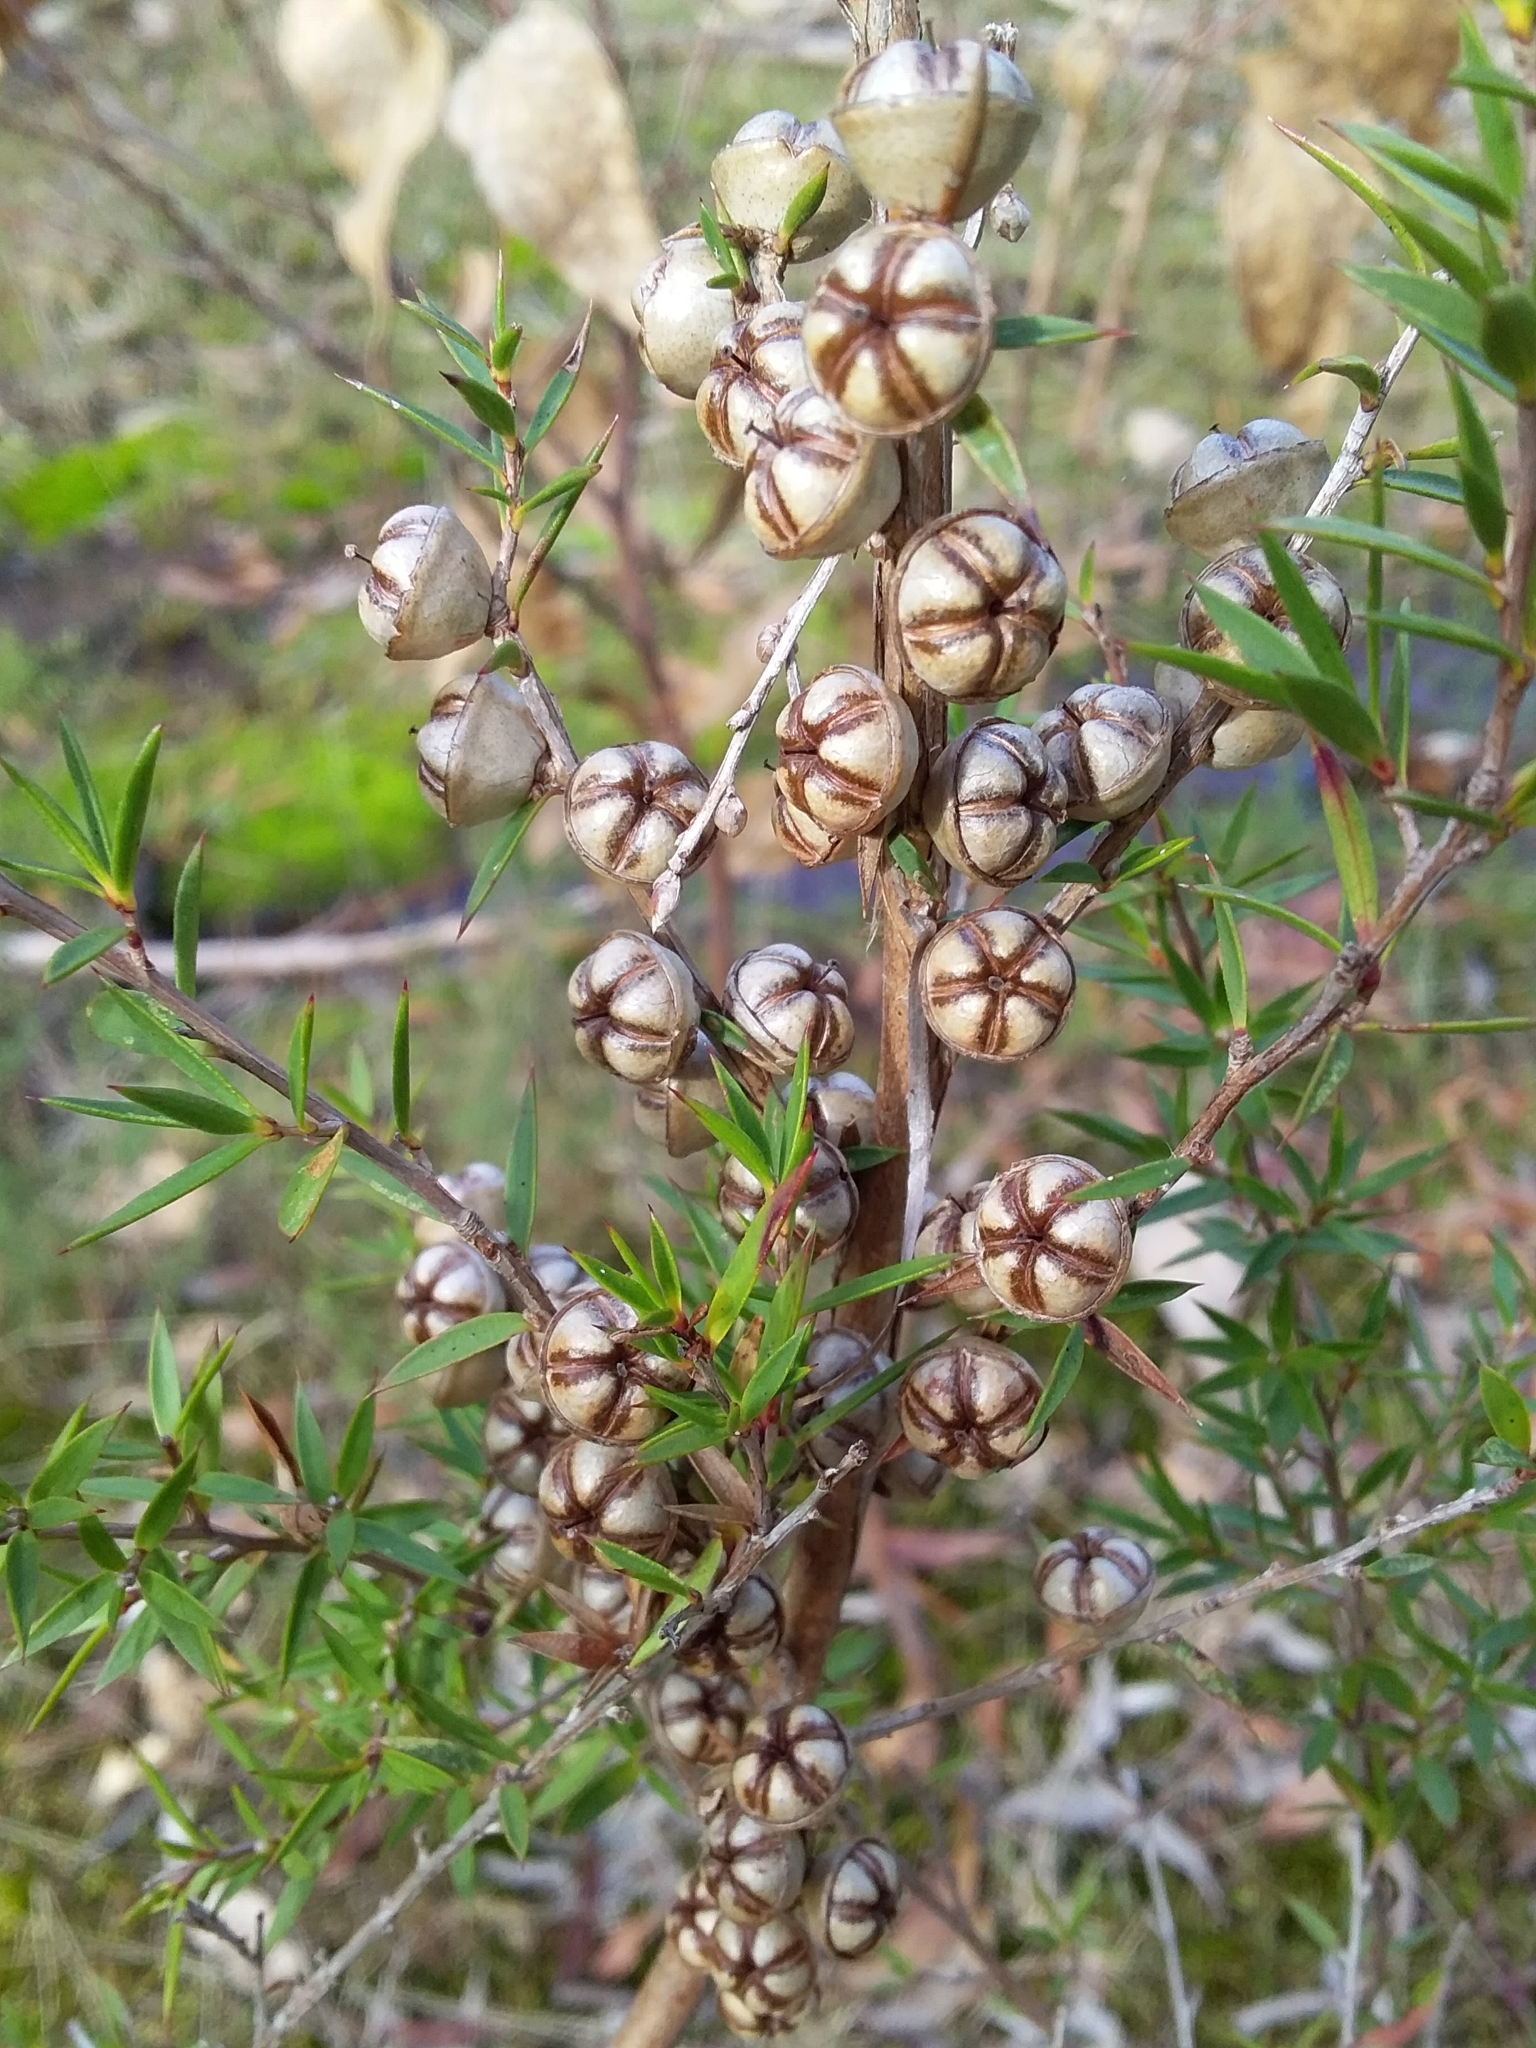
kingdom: Plantae
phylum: Tracheophyta
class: Magnoliopsida
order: Myrtales
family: Myrtaceae
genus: Leptospermum
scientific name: Leptospermum continentale
